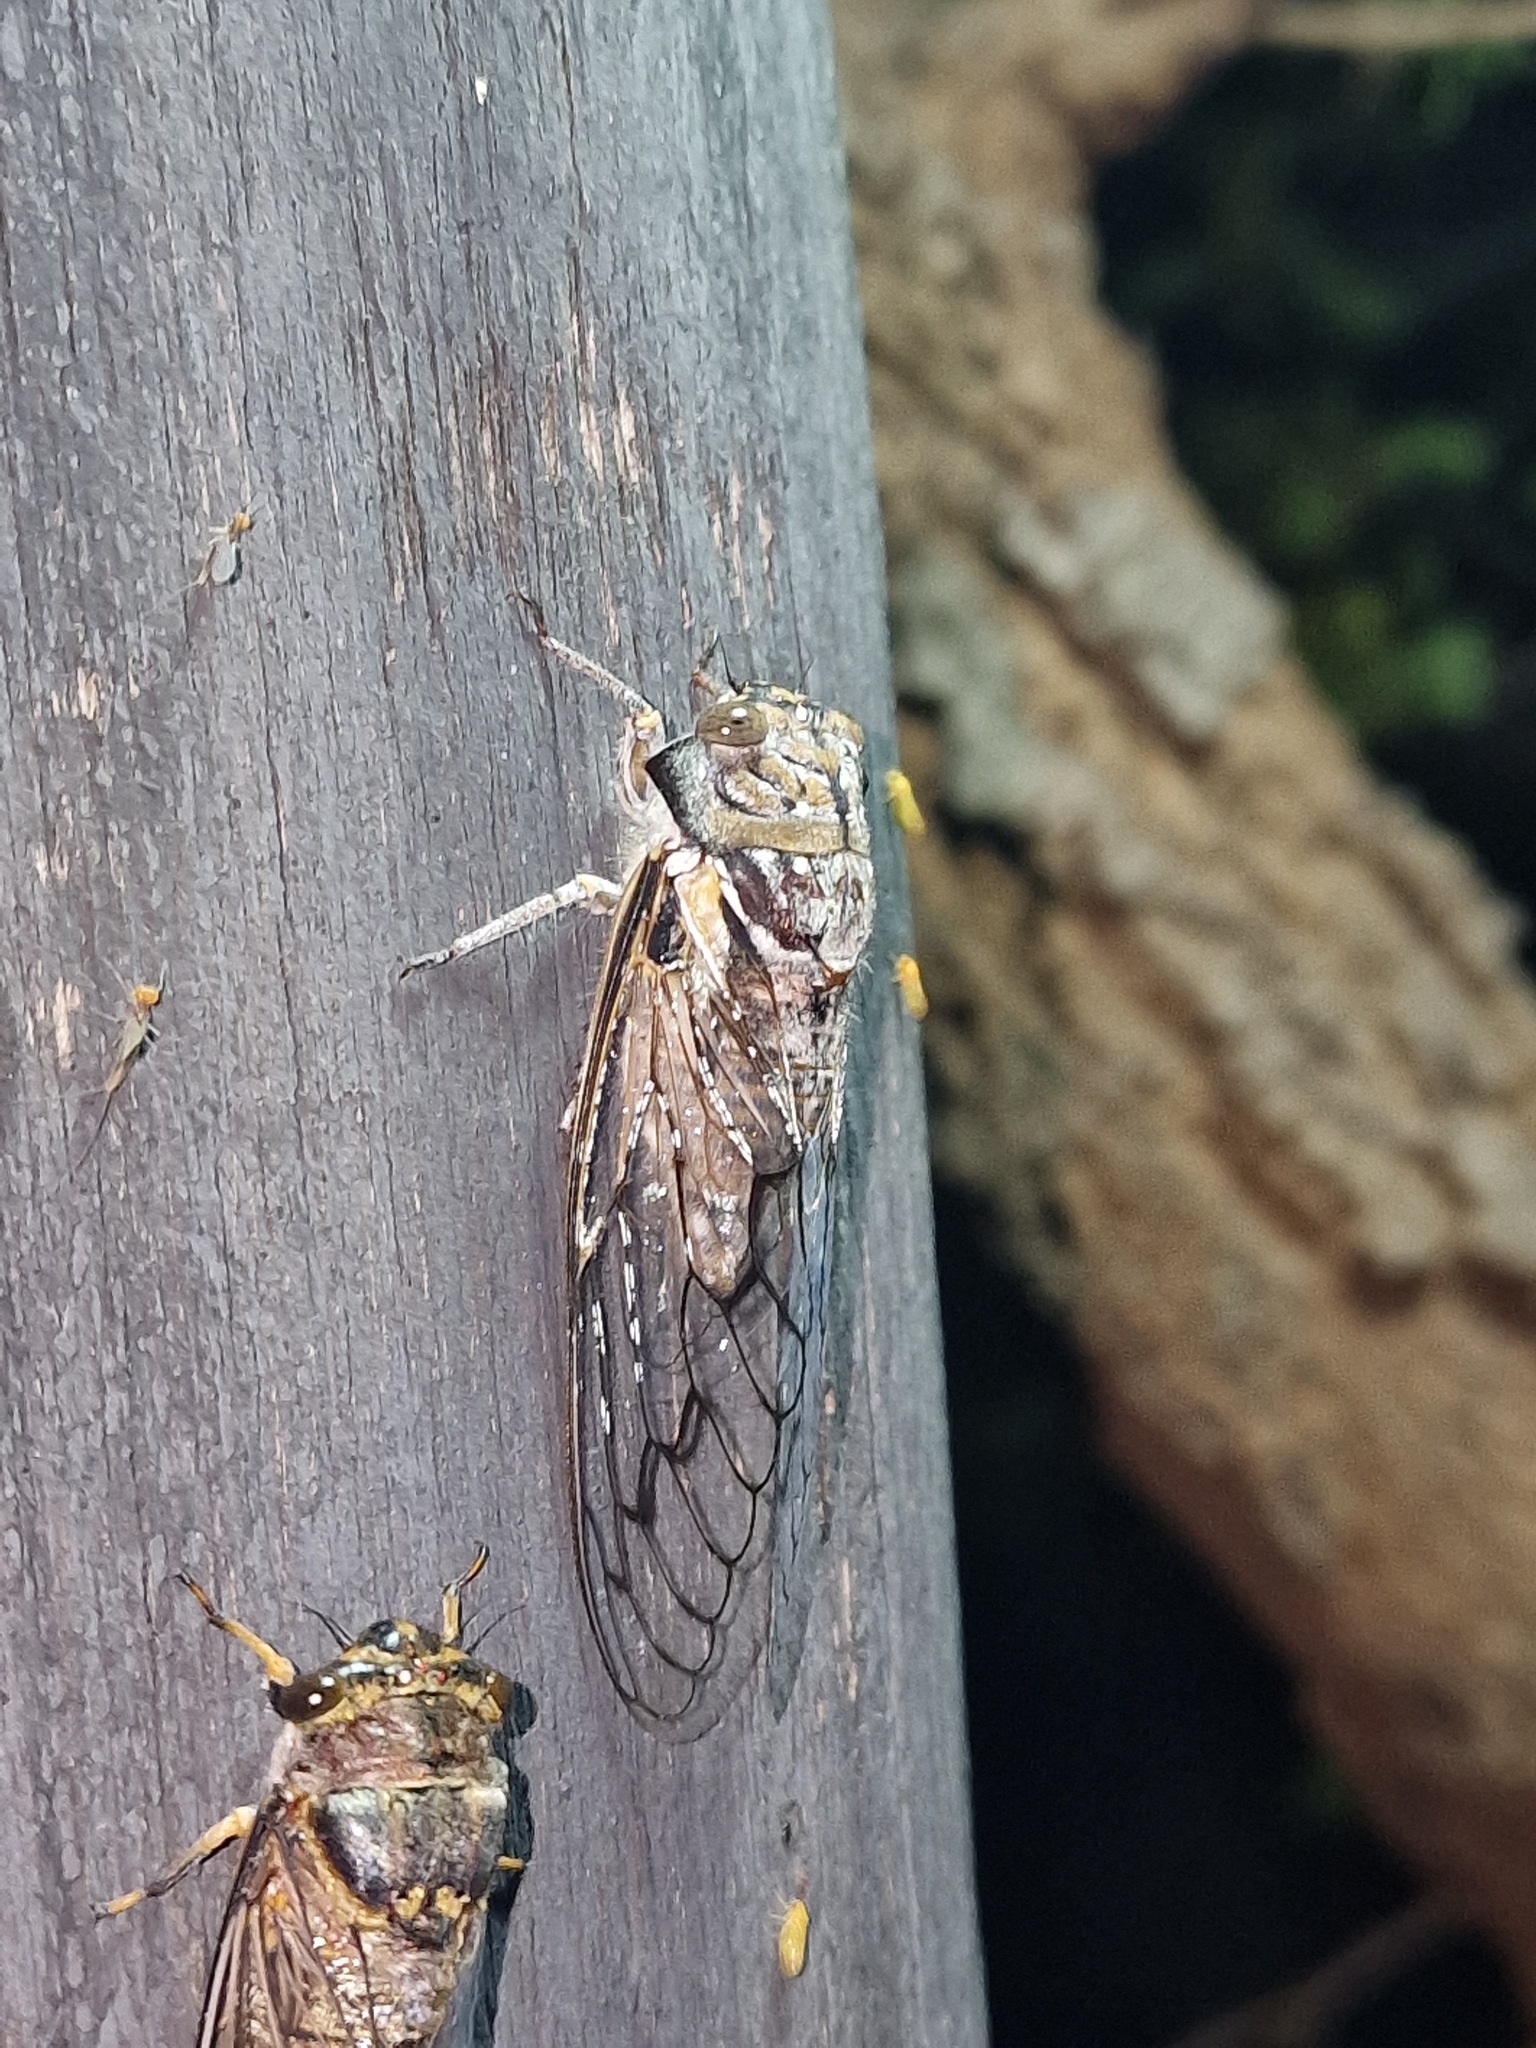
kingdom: Animalia
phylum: Arthropoda
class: Insecta
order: Hemiptera
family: Cicadidae
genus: Oxypleura
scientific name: Oxypleura quadraticollis
